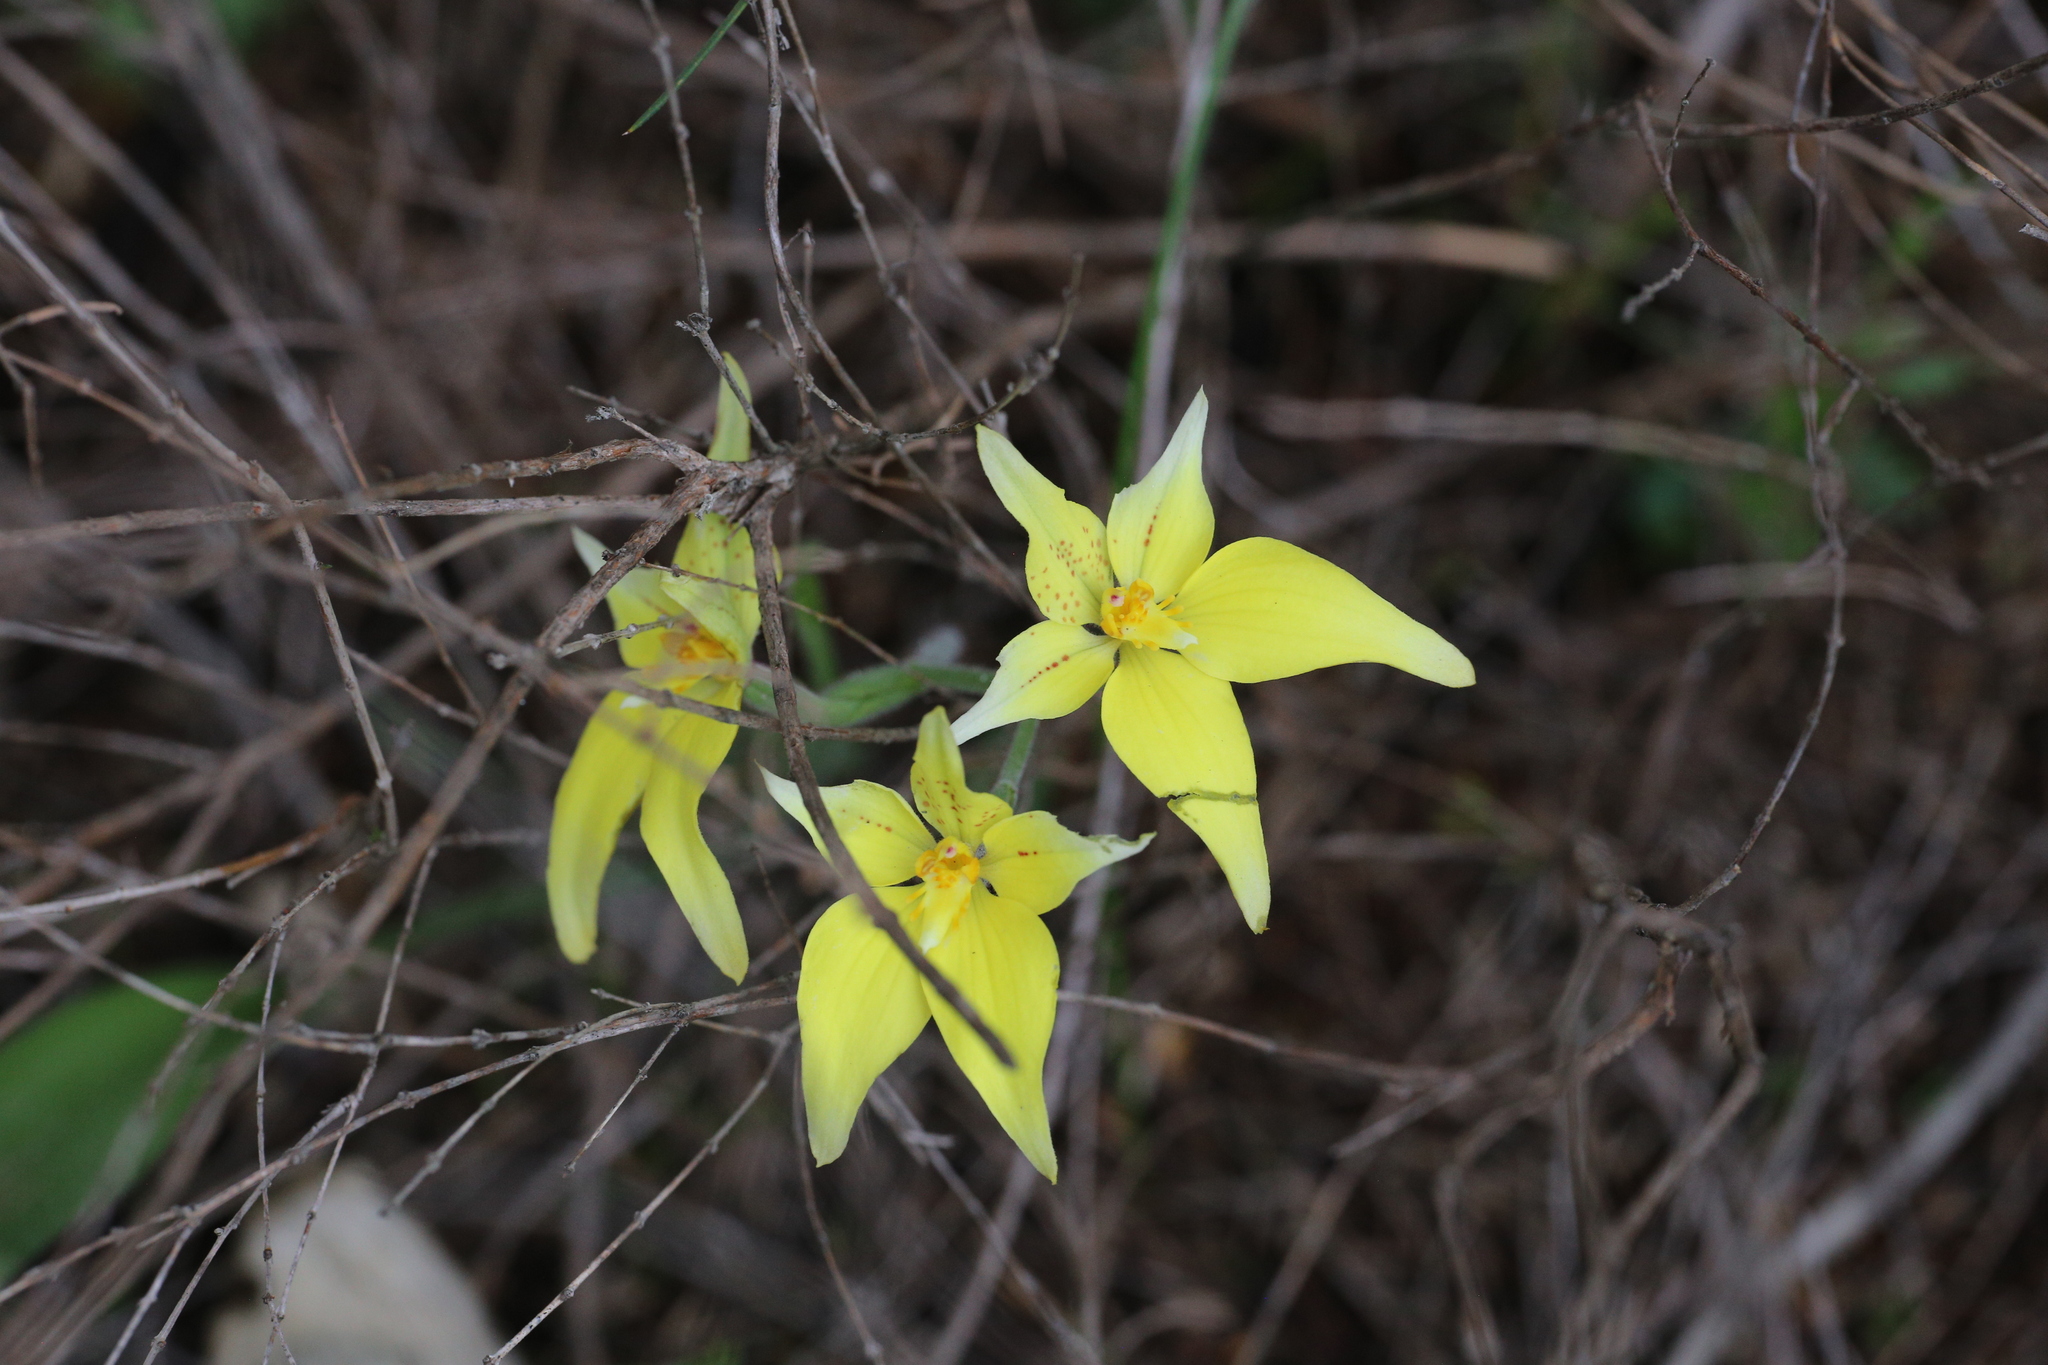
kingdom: Plantae
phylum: Tracheophyta
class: Liliopsida
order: Asparagales
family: Orchidaceae
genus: Caladenia
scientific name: Caladenia flava
